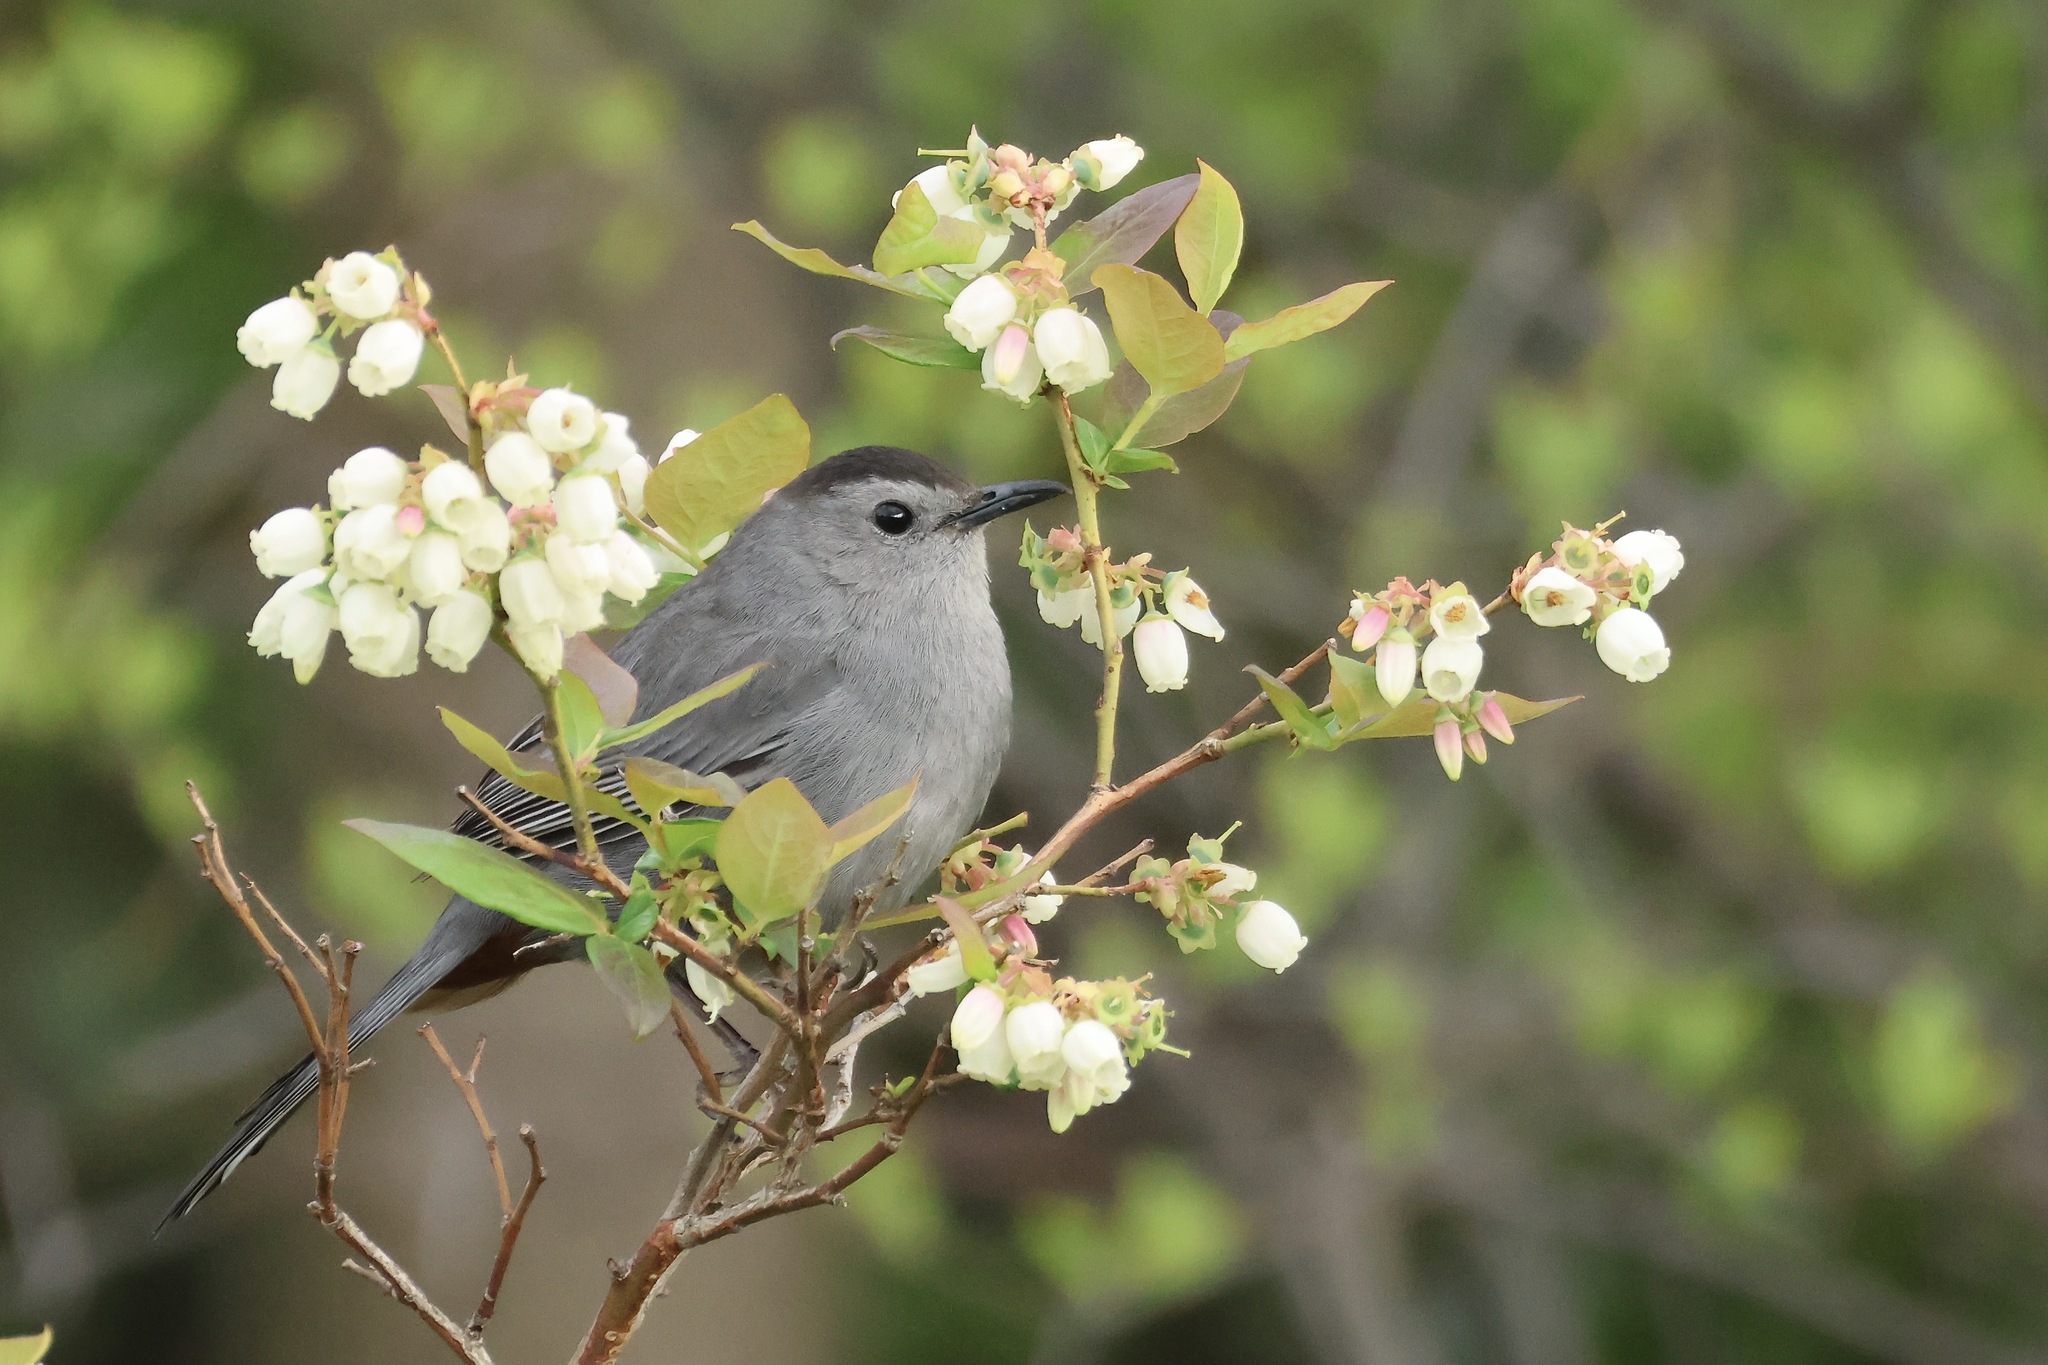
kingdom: Animalia
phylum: Chordata
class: Aves
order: Passeriformes
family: Mimidae
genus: Dumetella
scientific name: Dumetella carolinensis
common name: Gray catbird
